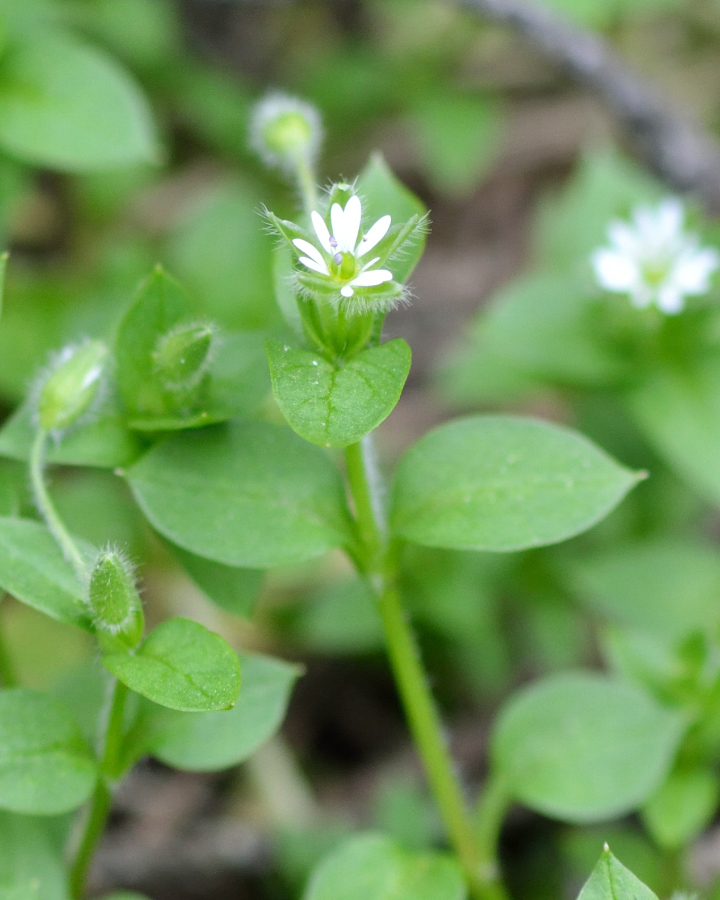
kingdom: Plantae
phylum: Tracheophyta
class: Magnoliopsida
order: Caryophyllales
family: Caryophyllaceae
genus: Stellaria
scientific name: Stellaria media
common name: Common chickweed
